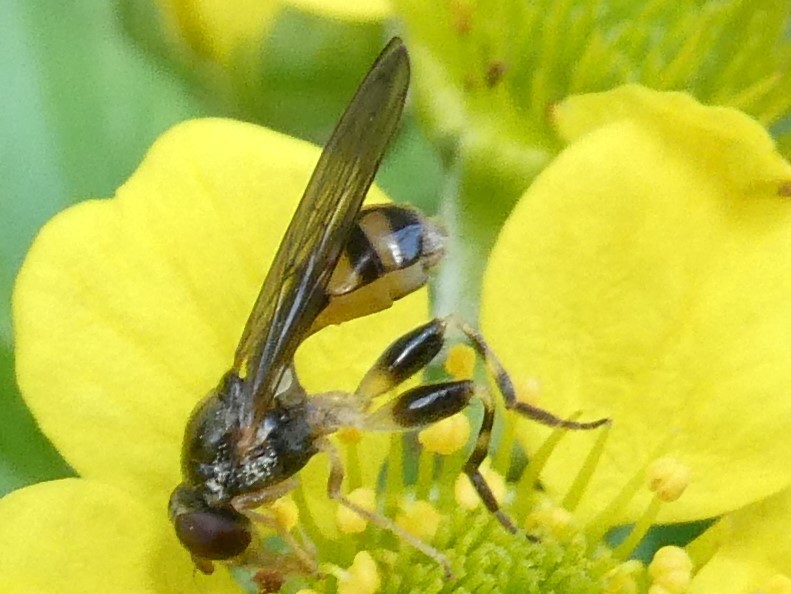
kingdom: Animalia
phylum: Arthropoda
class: Insecta
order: Diptera
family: Syrphidae
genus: Sphegina
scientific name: Sphegina
